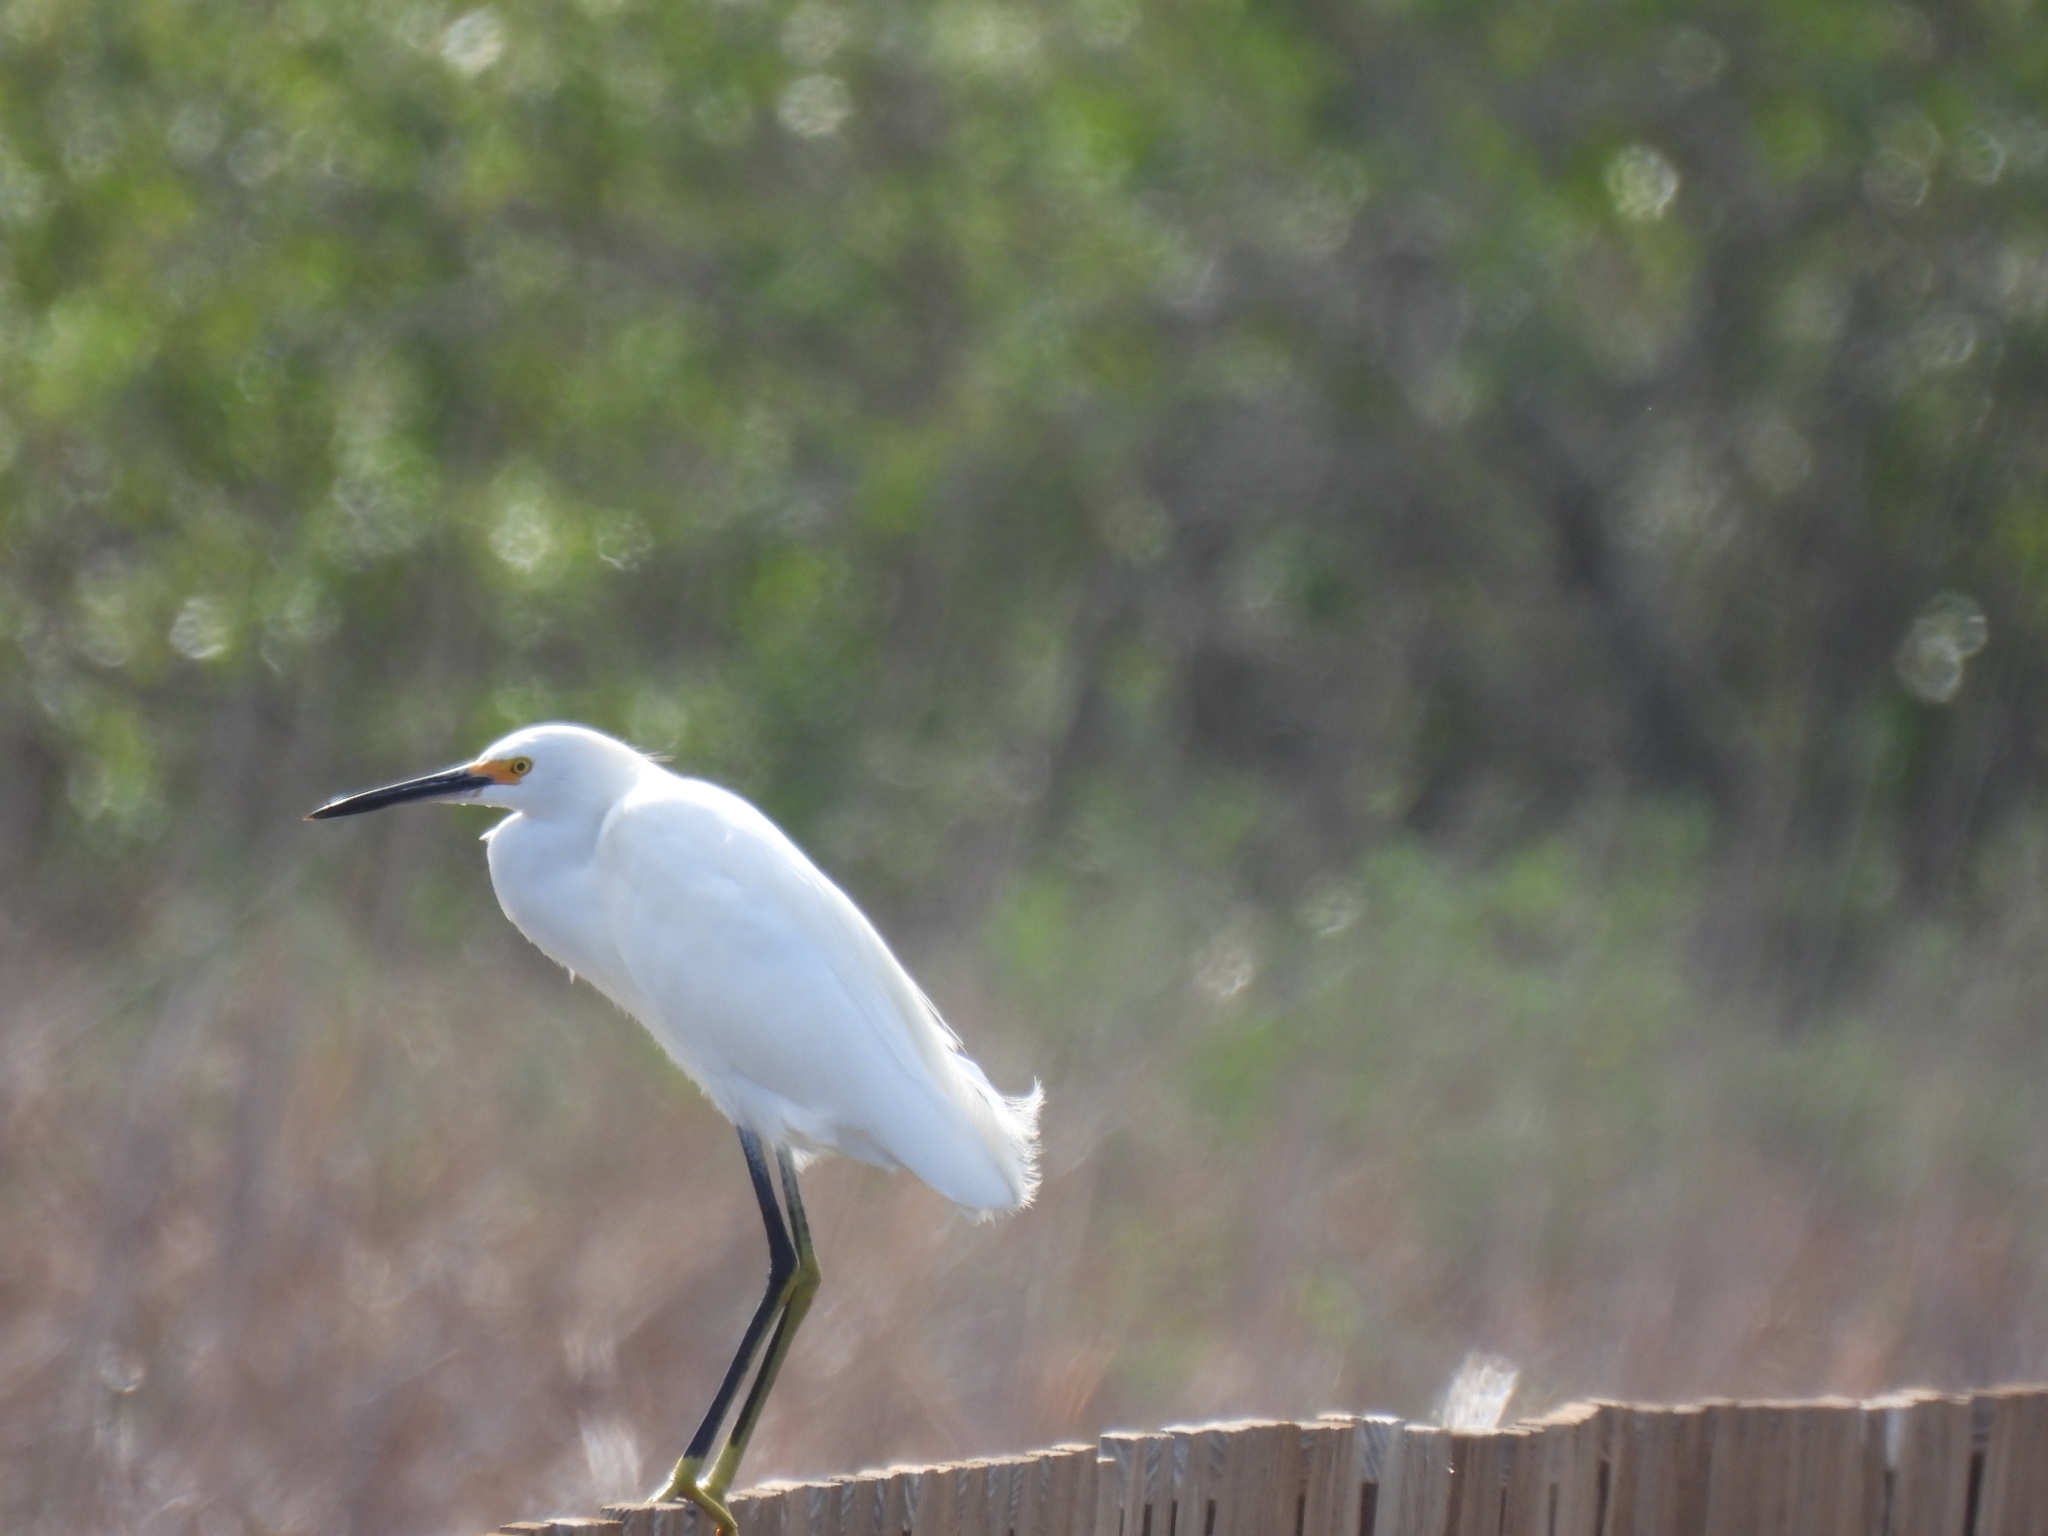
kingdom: Animalia
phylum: Chordata
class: Aves
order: Pelecaniformes
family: Ardeidae
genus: Egretta
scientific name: Egretta thula
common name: Snowy egret
